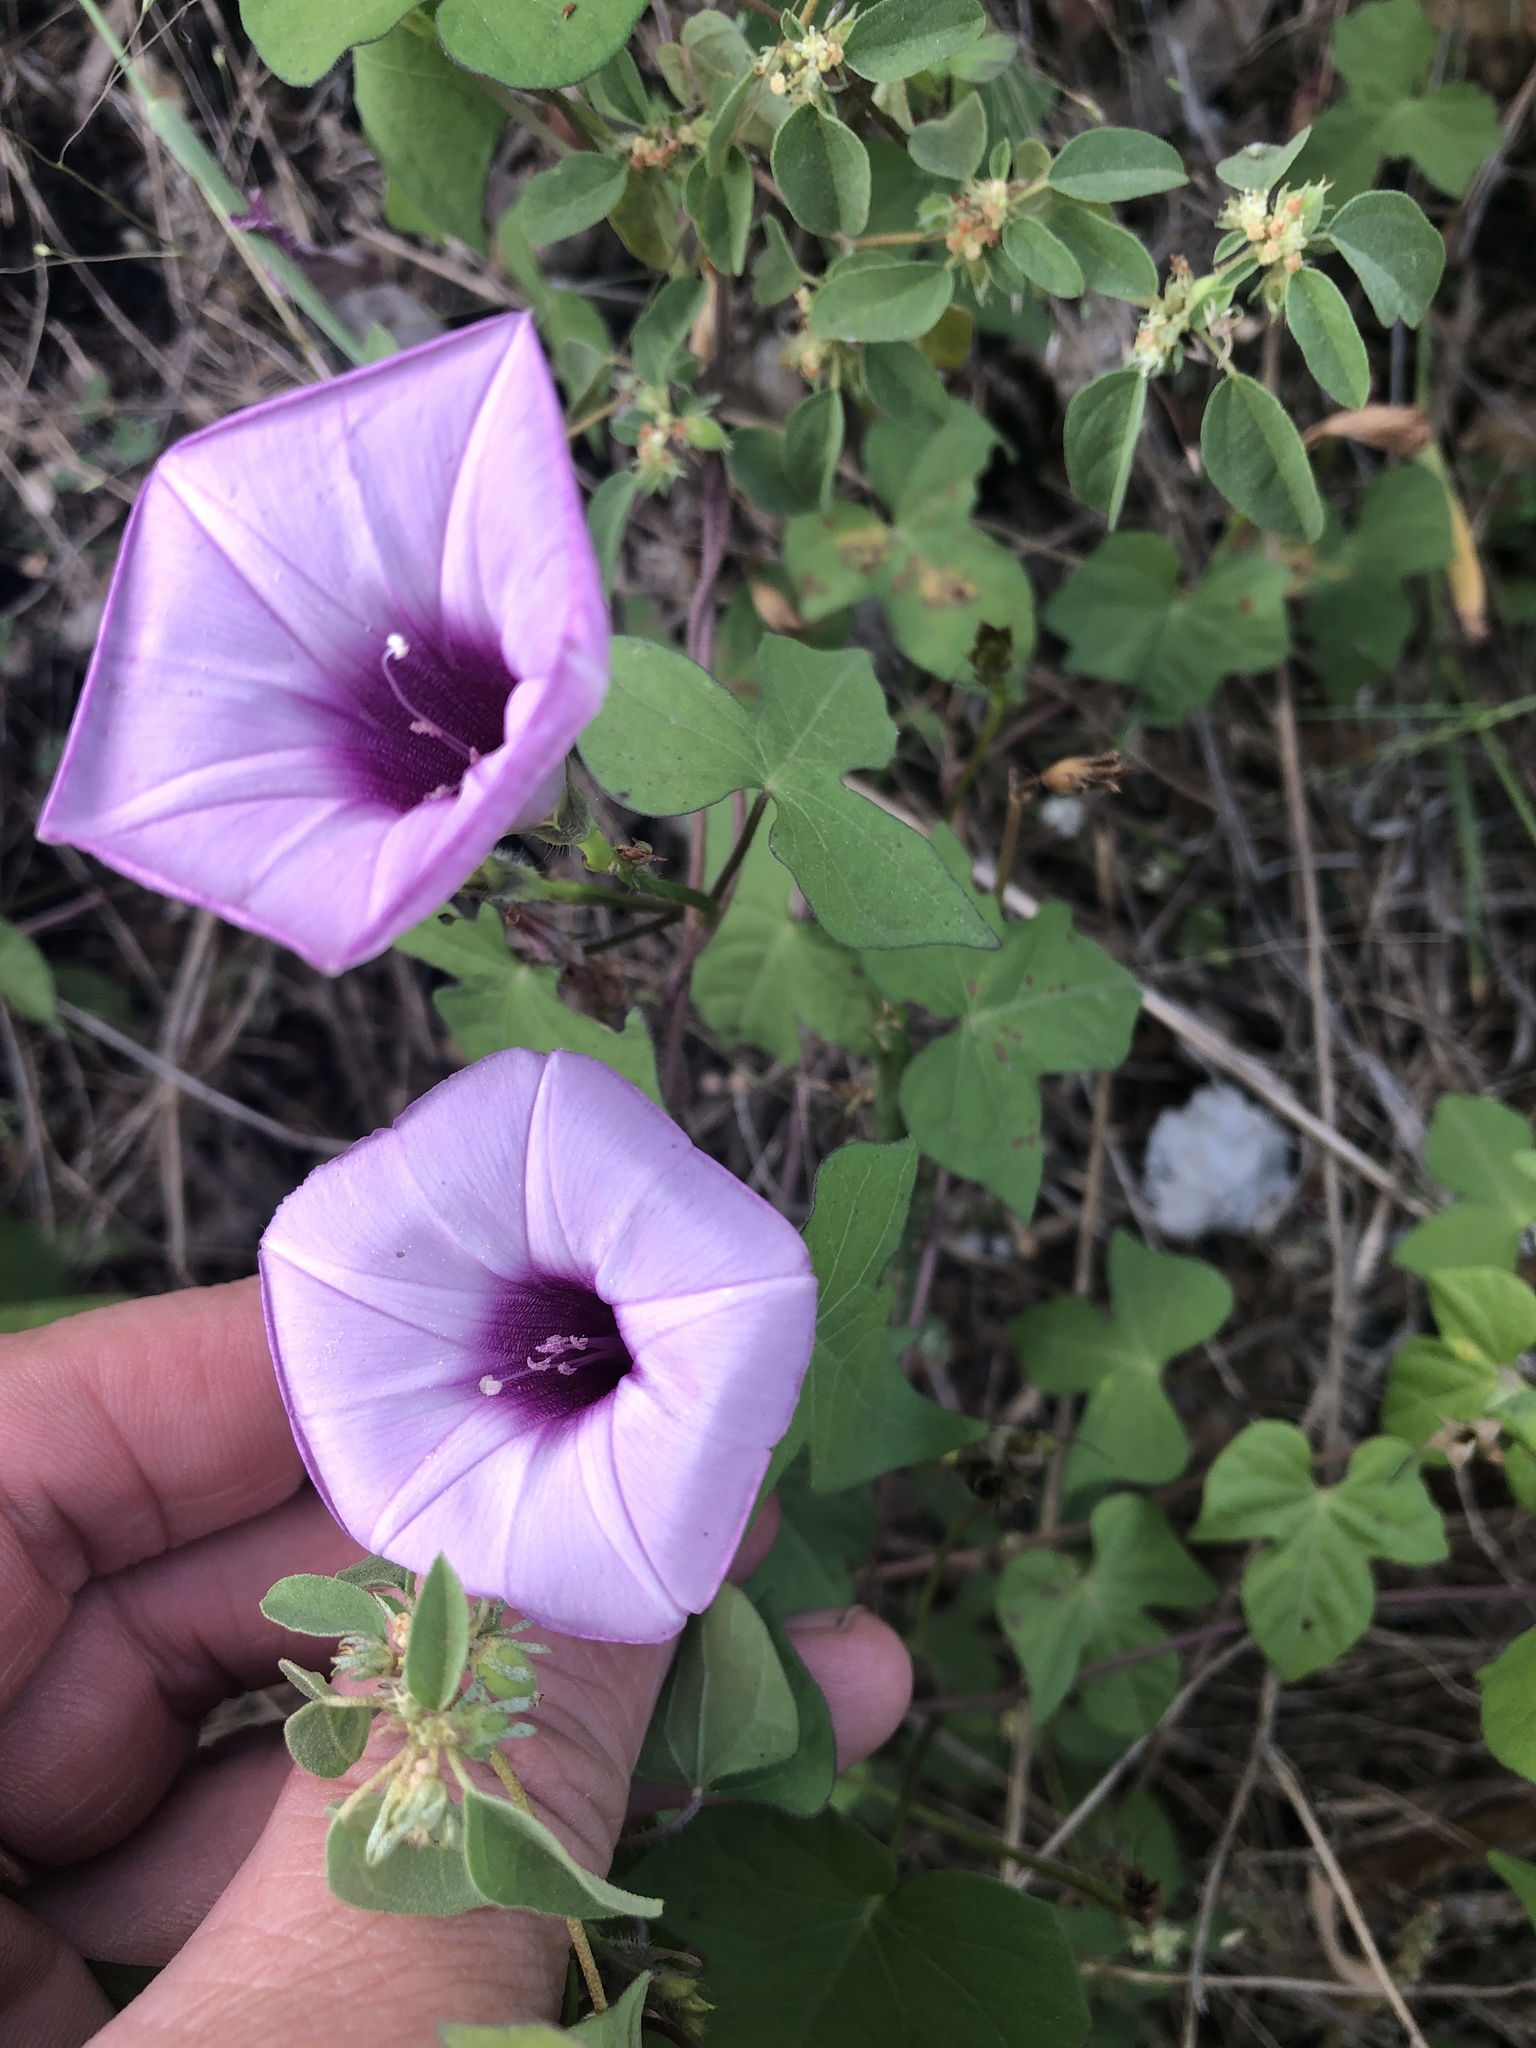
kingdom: Plantae
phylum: Tracheophyta
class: Magnoliopsida
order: Solanales
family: Convolvulaceae
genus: Ipomoea
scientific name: Ipomoea cordatotriloba
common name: Cotton morning glory
